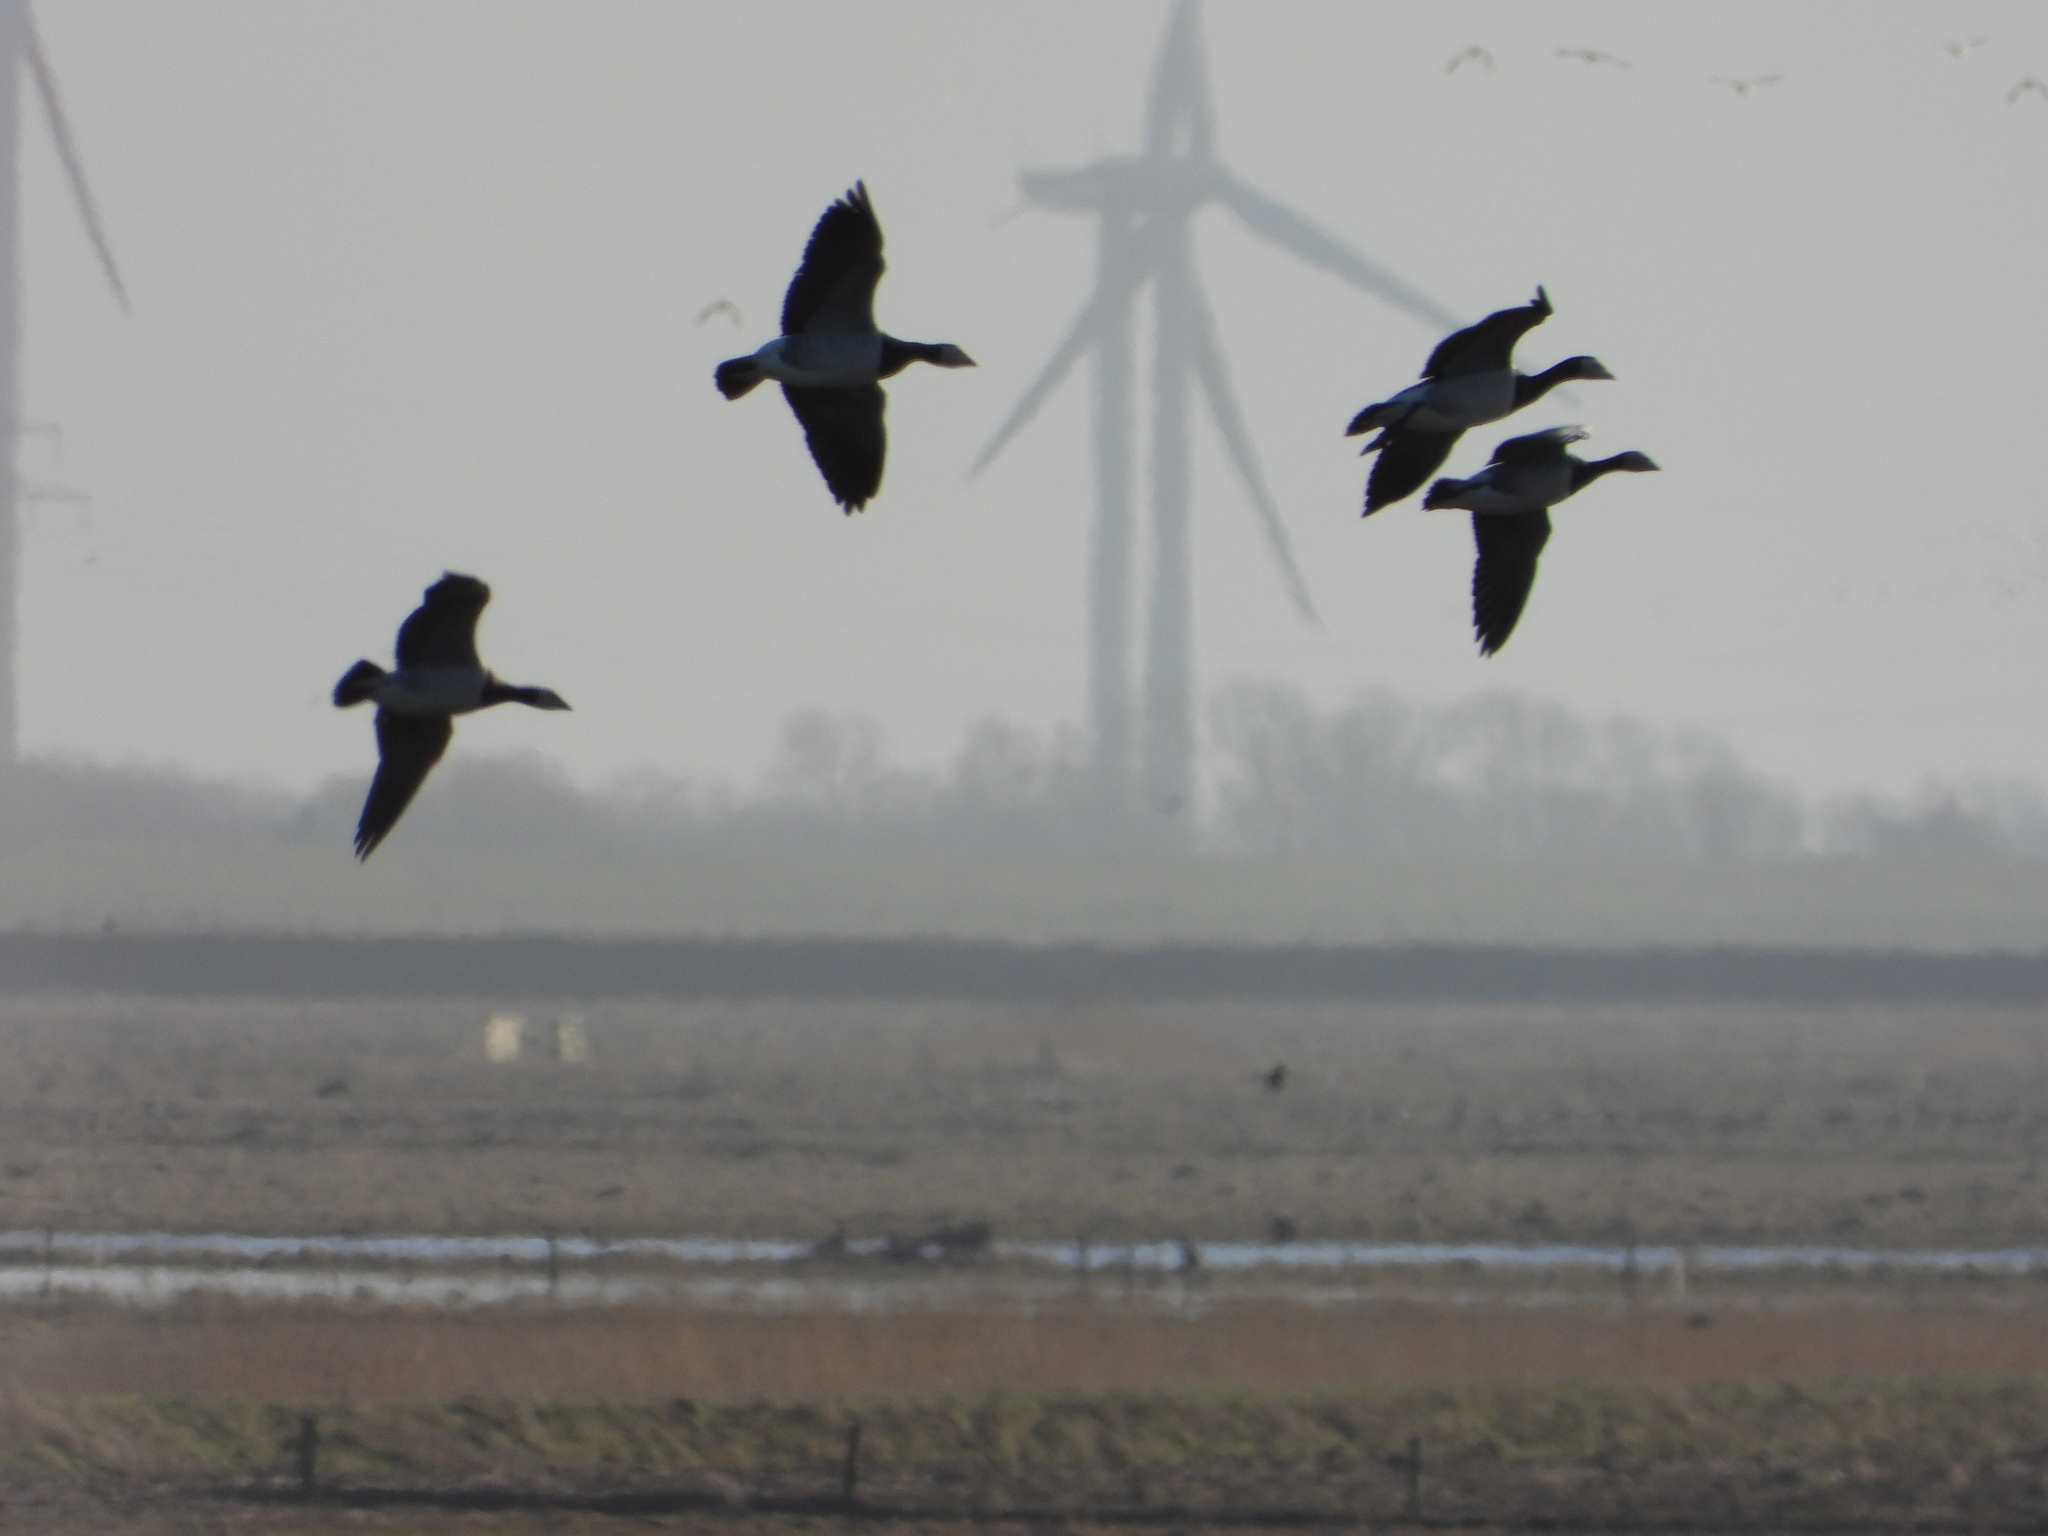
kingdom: Animalia
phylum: Chordata
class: Aves
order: Anseriformes
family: Anatidae
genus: Branta
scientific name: Branta leucopsis
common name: Barnacle goose
